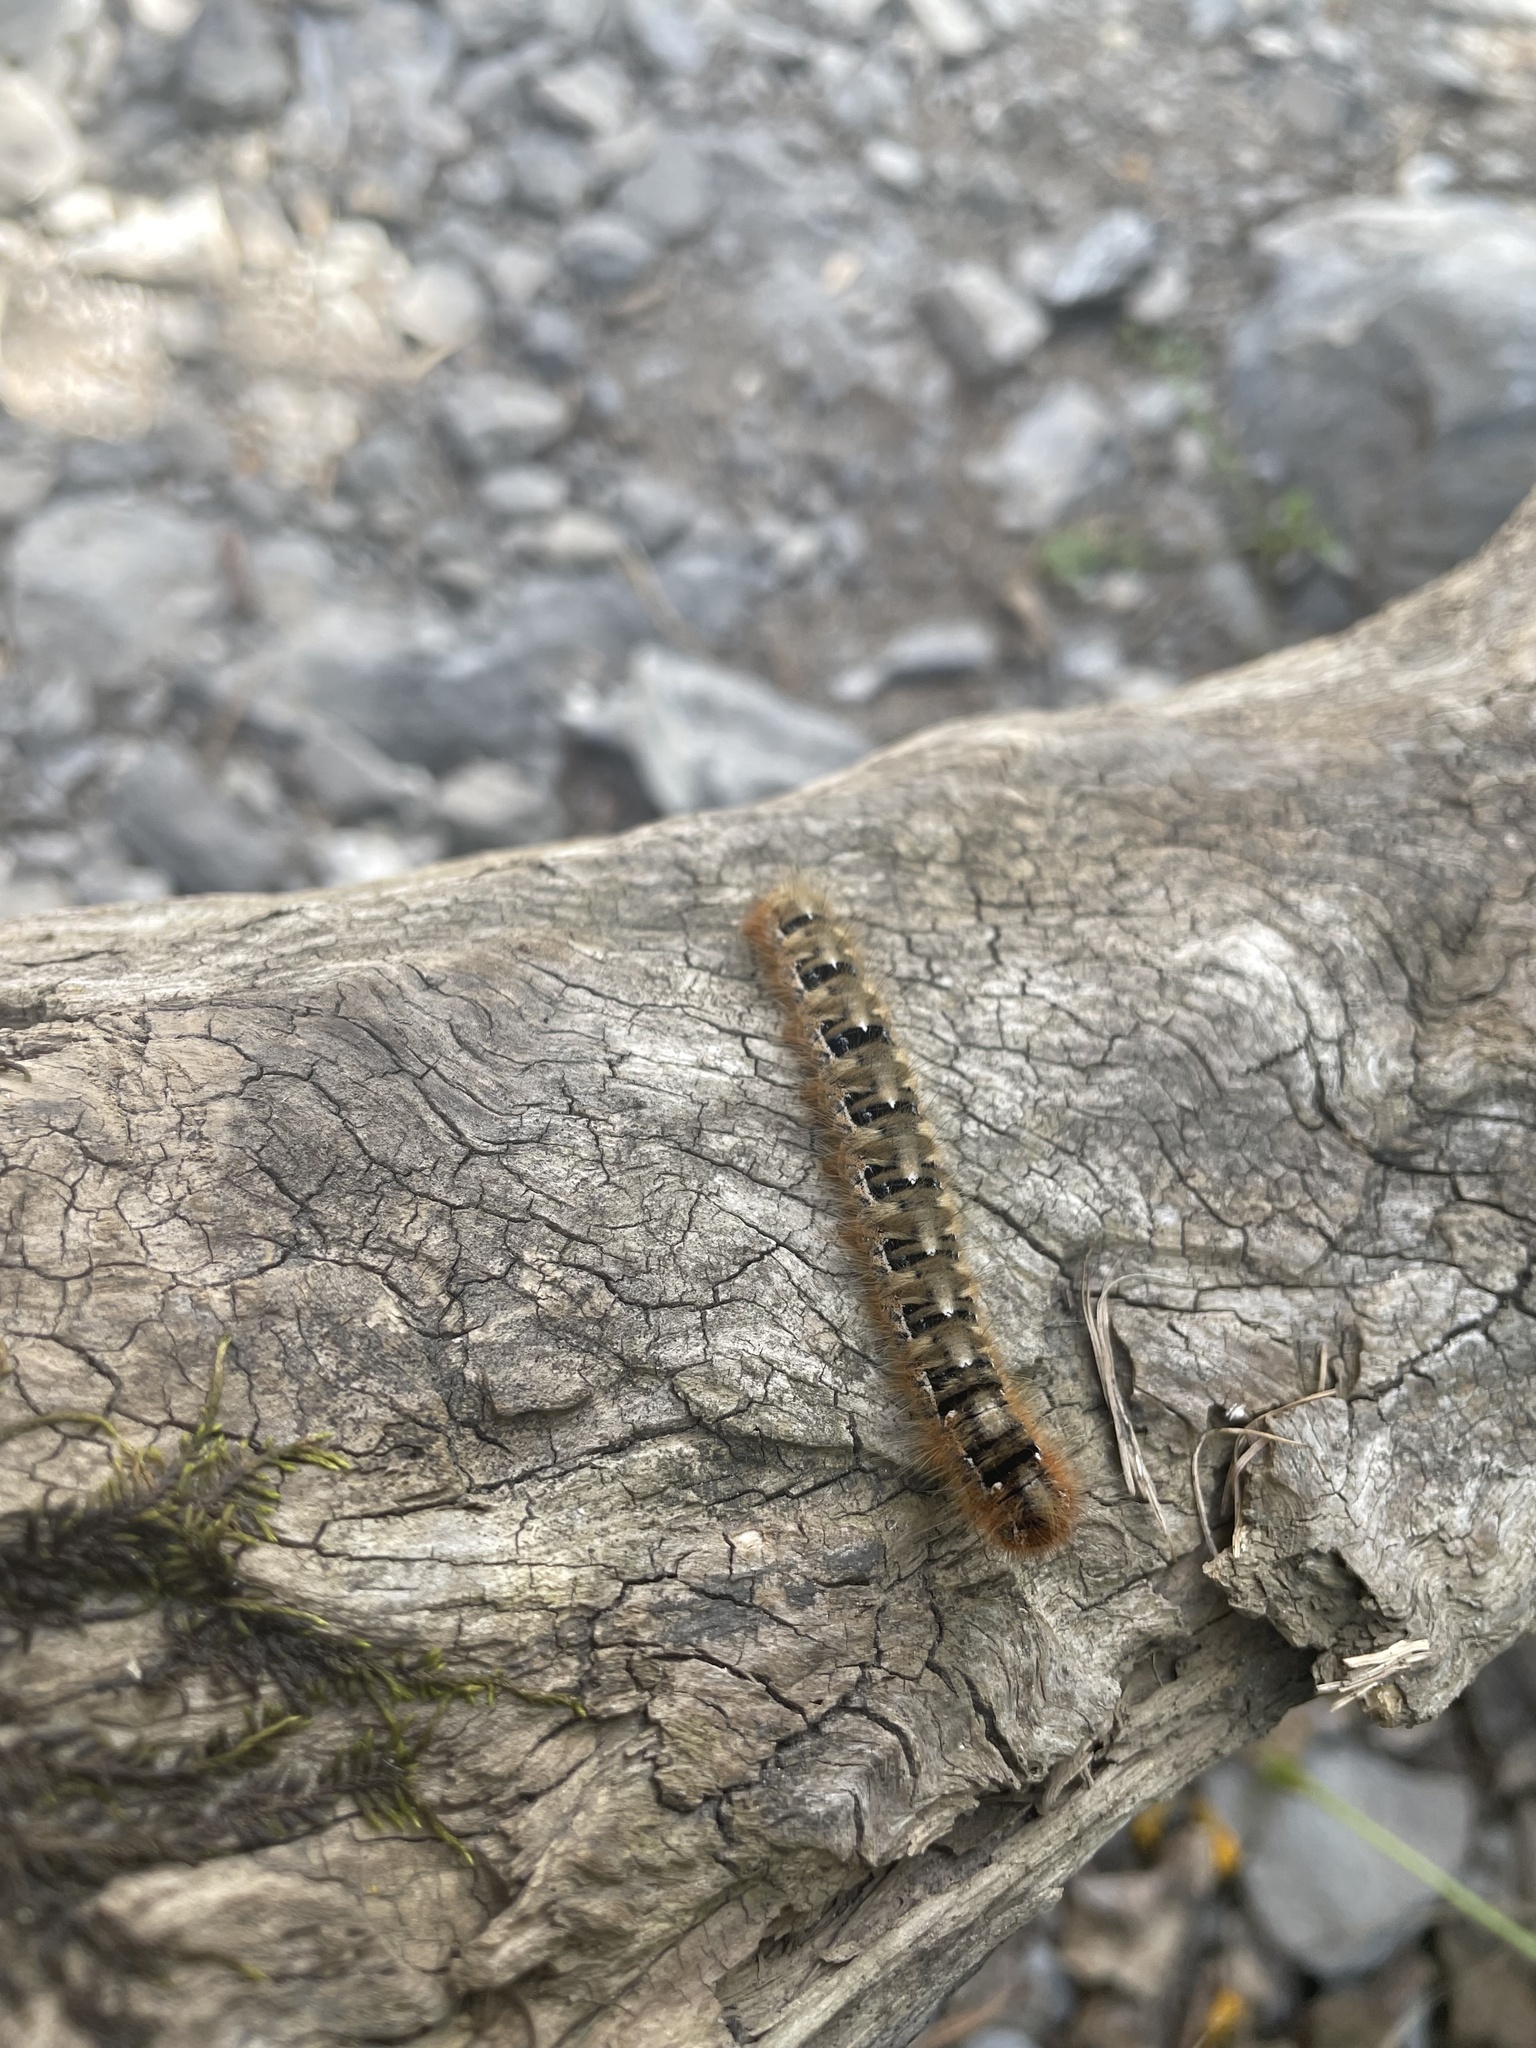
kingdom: Animalia
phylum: Arthropoda
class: Insecta
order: Lepidoptera
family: Lasiocampidae
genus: Lasiocampa
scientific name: Lasiocampa quercus
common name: Oak eggar
